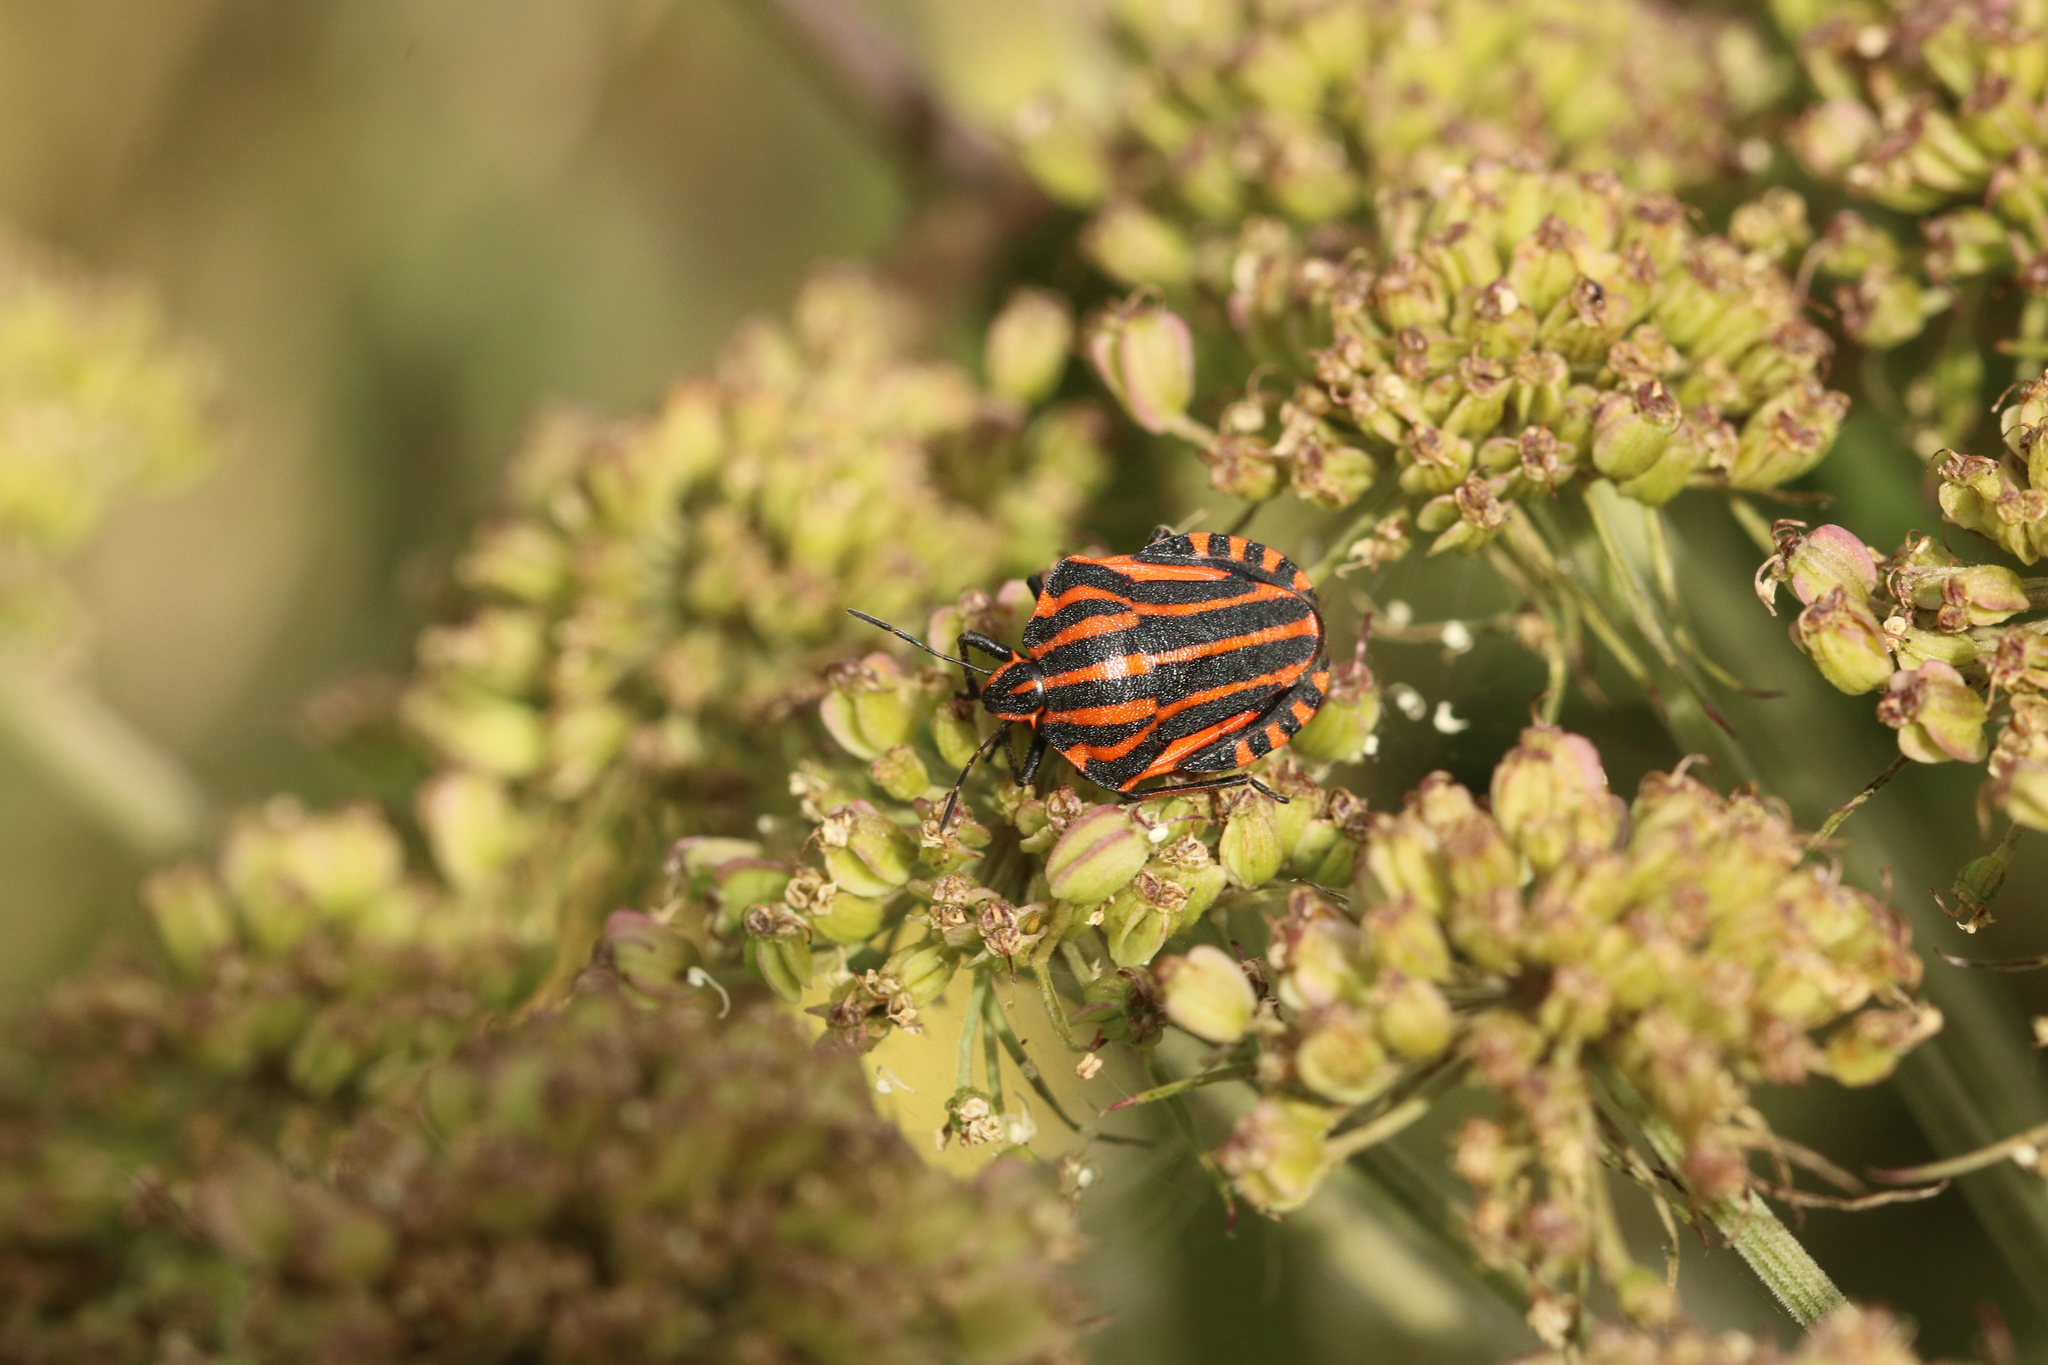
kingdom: Animalia
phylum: Arthropoda
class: Insecta
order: Hemiptera
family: Pentatomidae
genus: Graphosoma
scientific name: Graphosoma italicum
